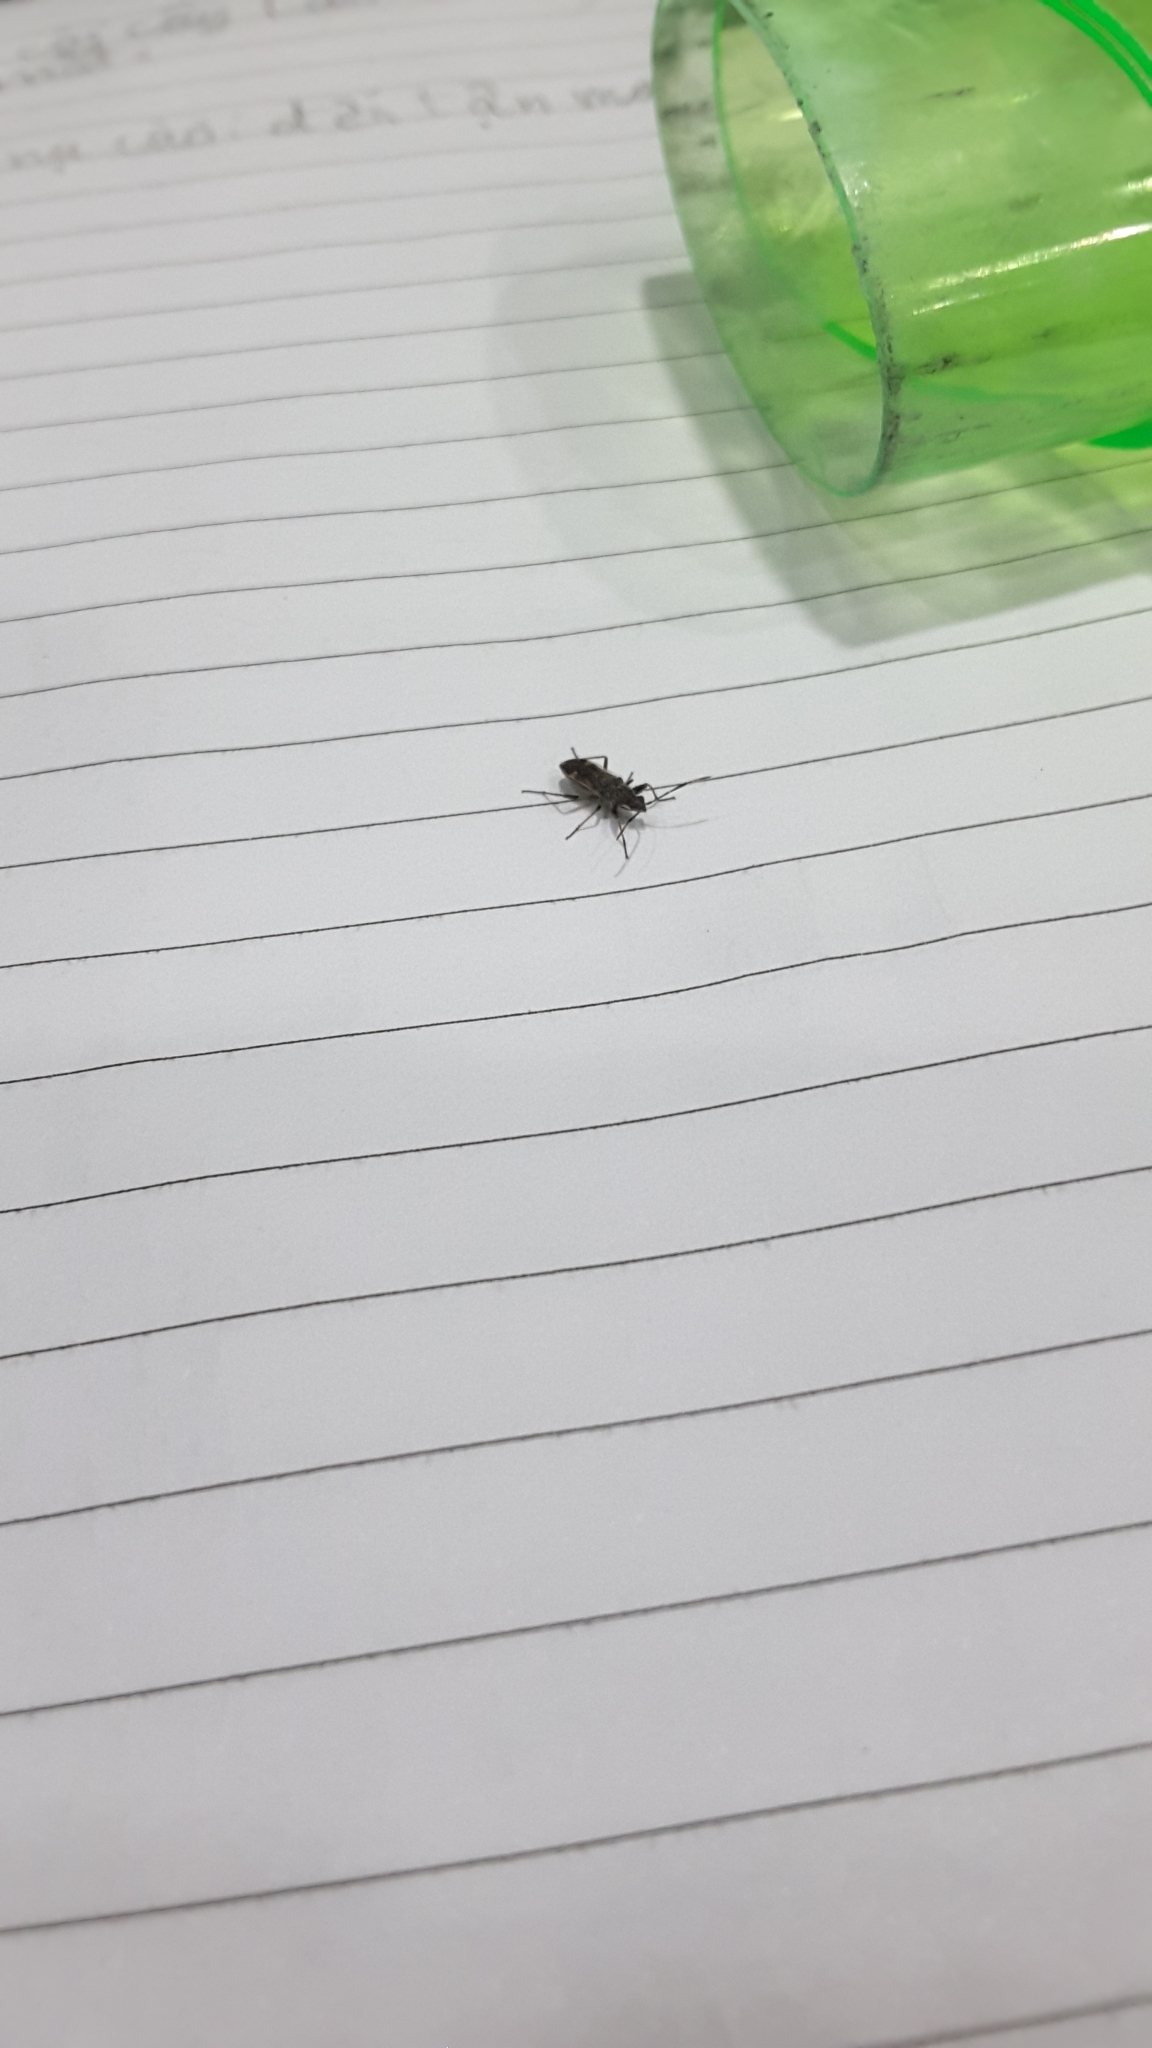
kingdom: Animalia
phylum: Arthropoda
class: Insecta
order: Hemiptera
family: Rhyparochromidae
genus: Horridipamera
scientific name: Horridipamera nietneri
